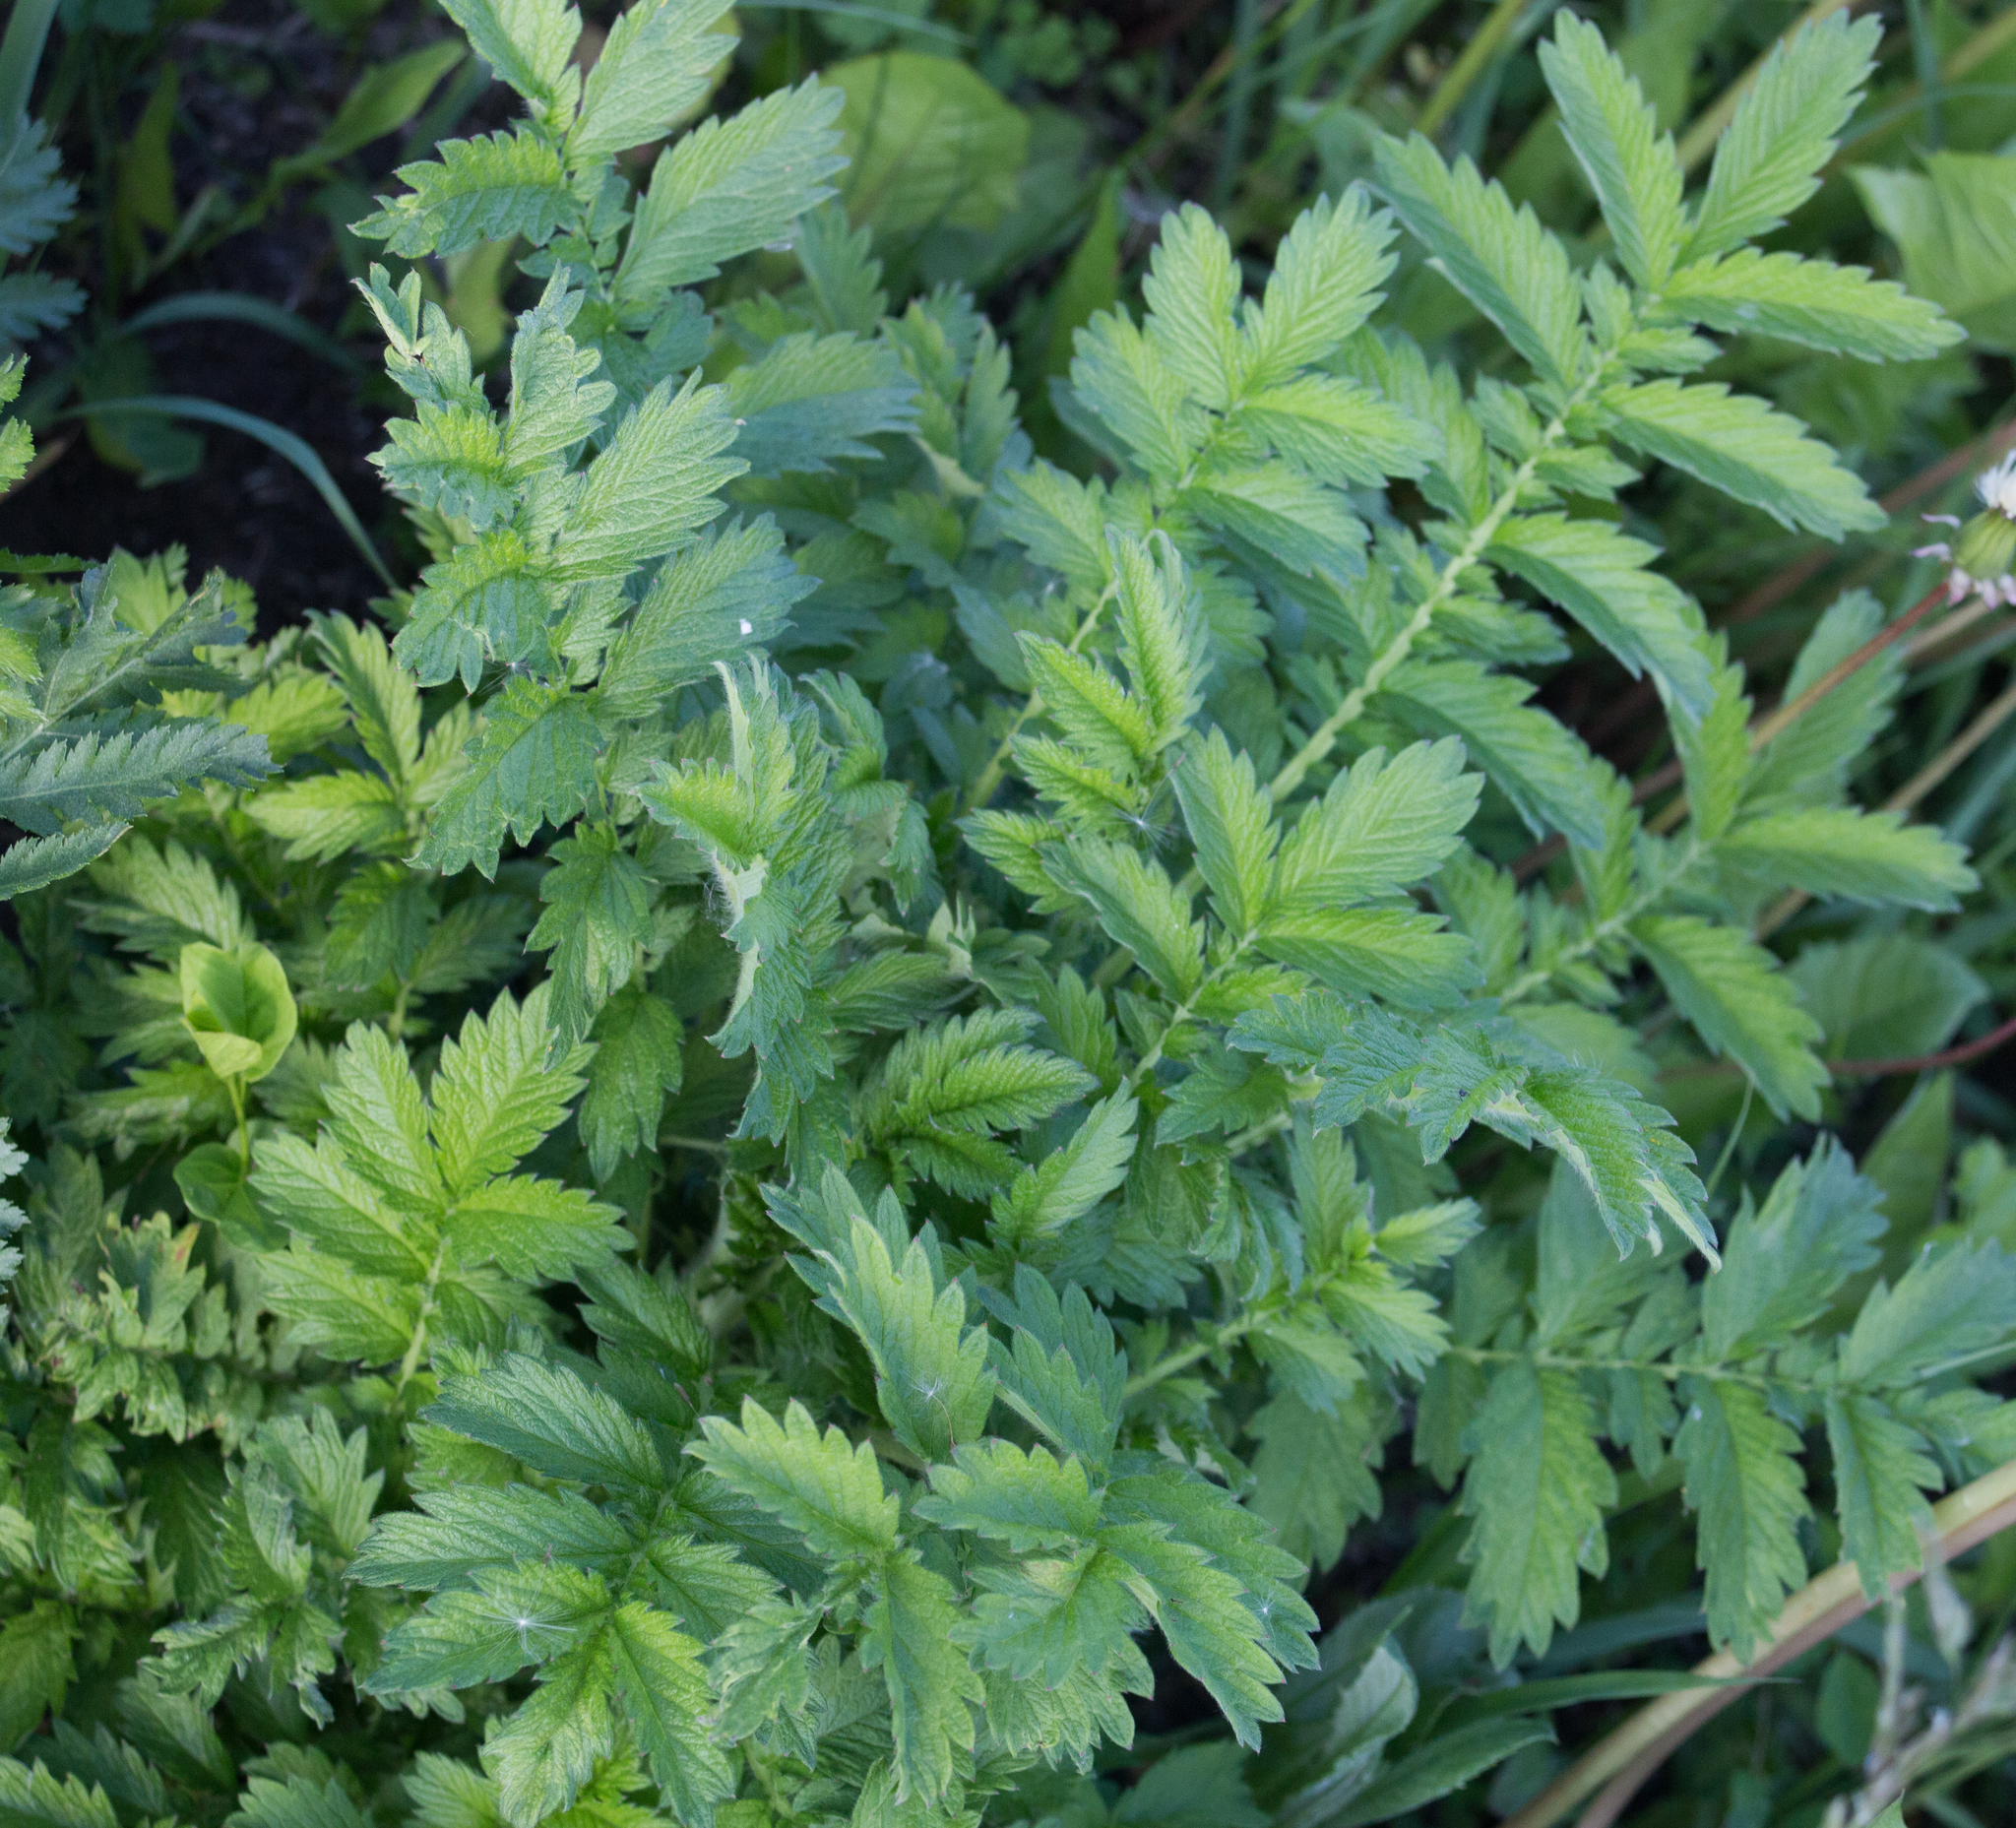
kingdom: Plantae
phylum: Tracheophyta
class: Magnoliopsida
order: Rosales
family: Rosaceae
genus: Agrimonia
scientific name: Agrimonia eupatoria
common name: Agrimony
